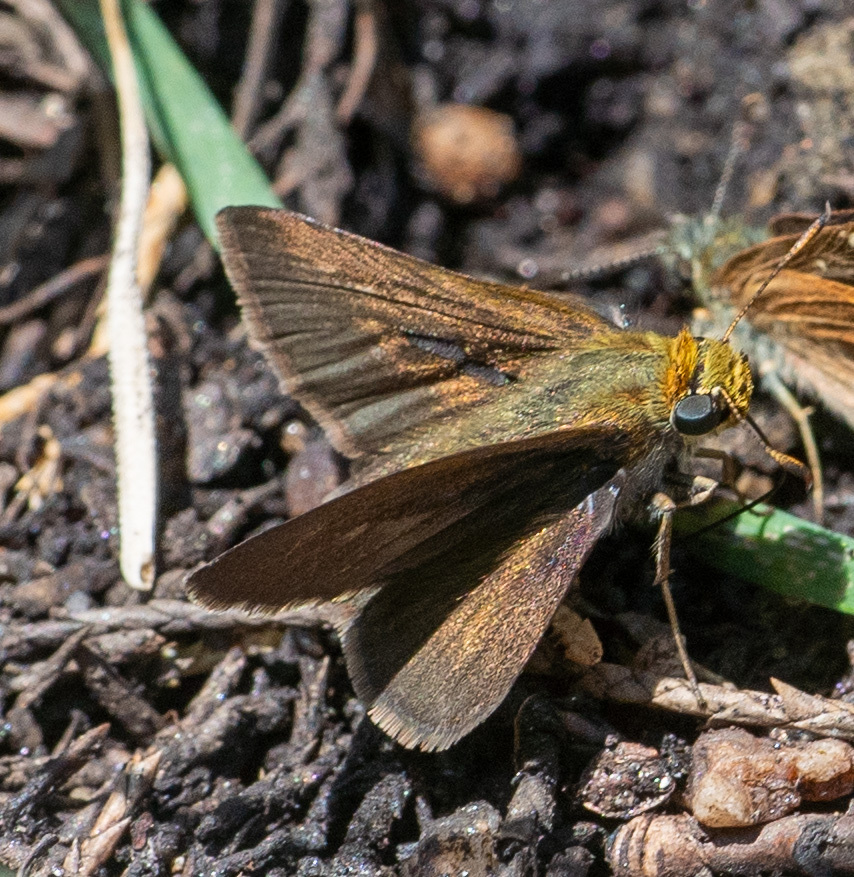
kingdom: Animalia
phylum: Arthropoda
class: Insecta
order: Lepidoptera
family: Hesperiidae
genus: Euphyes
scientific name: Euphyes vestris
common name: Dun skipper
